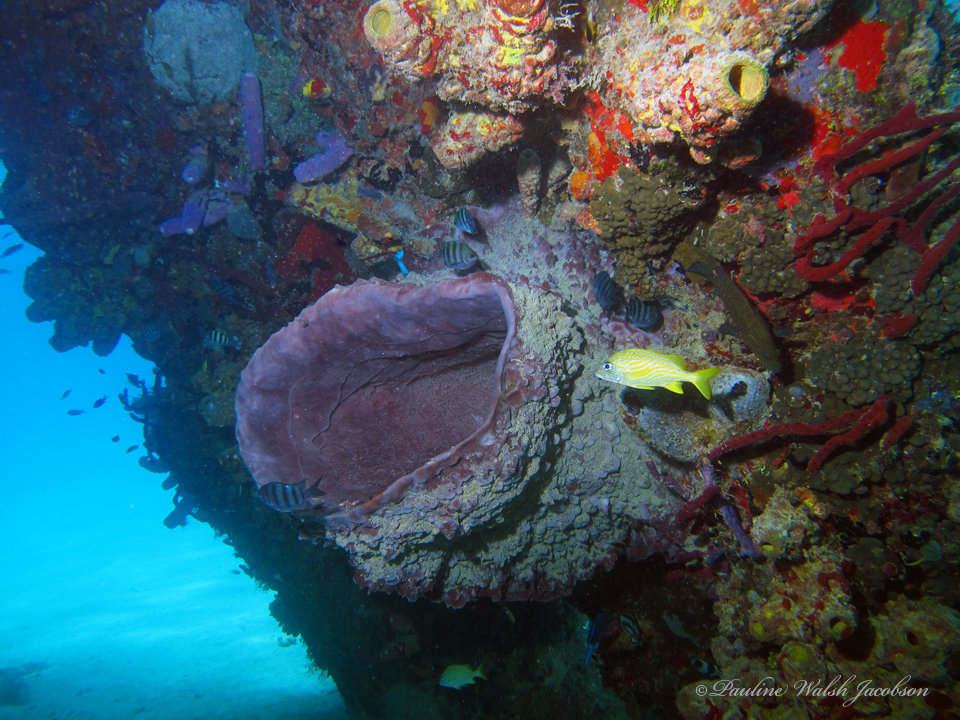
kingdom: Animalia
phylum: Chordata
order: Perciformes
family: Haemulidae
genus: Haemulon
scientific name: Haemulon flavolineatum
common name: French grunt
